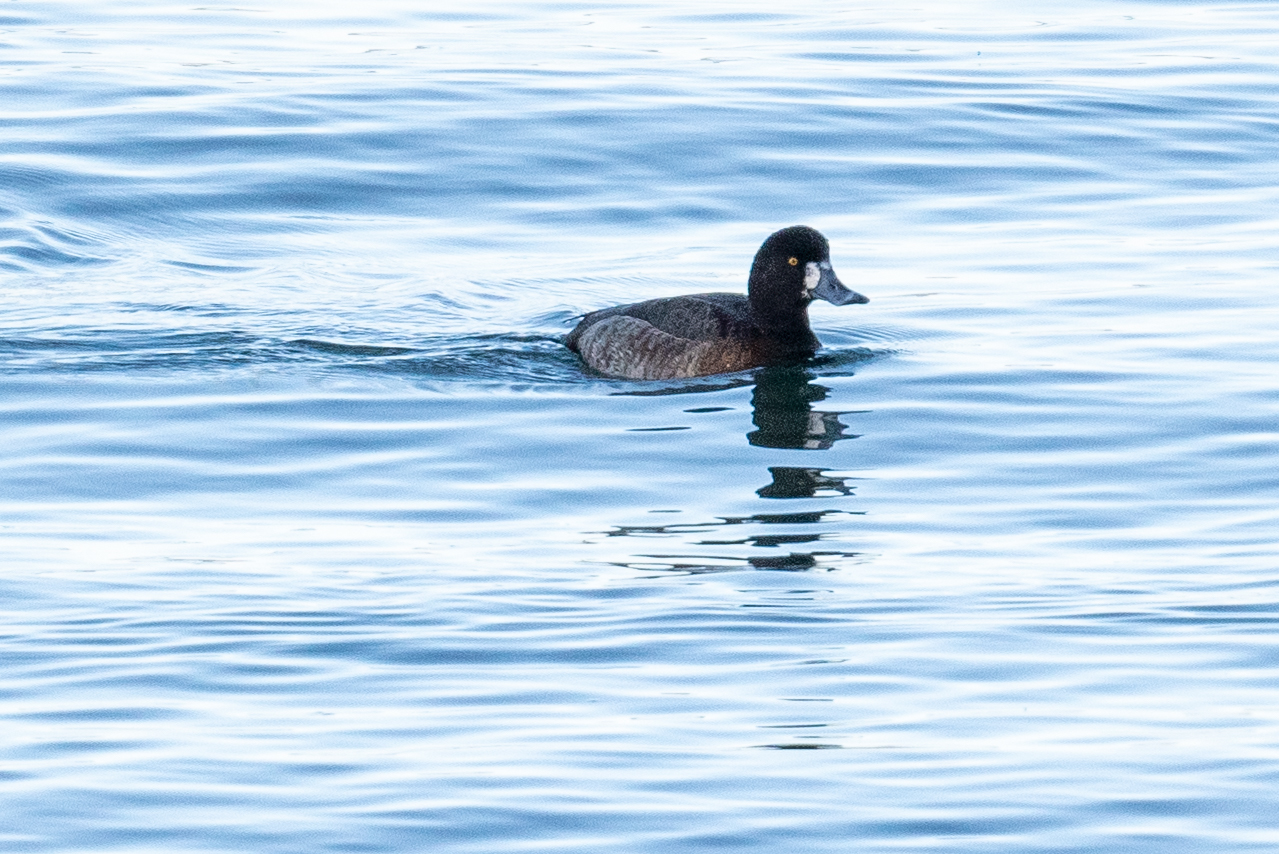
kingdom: Animalia
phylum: Chordata
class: Aves
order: Anseriformes
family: Anatidae
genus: Aythya
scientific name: Aythya marila
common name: Greater scaup
